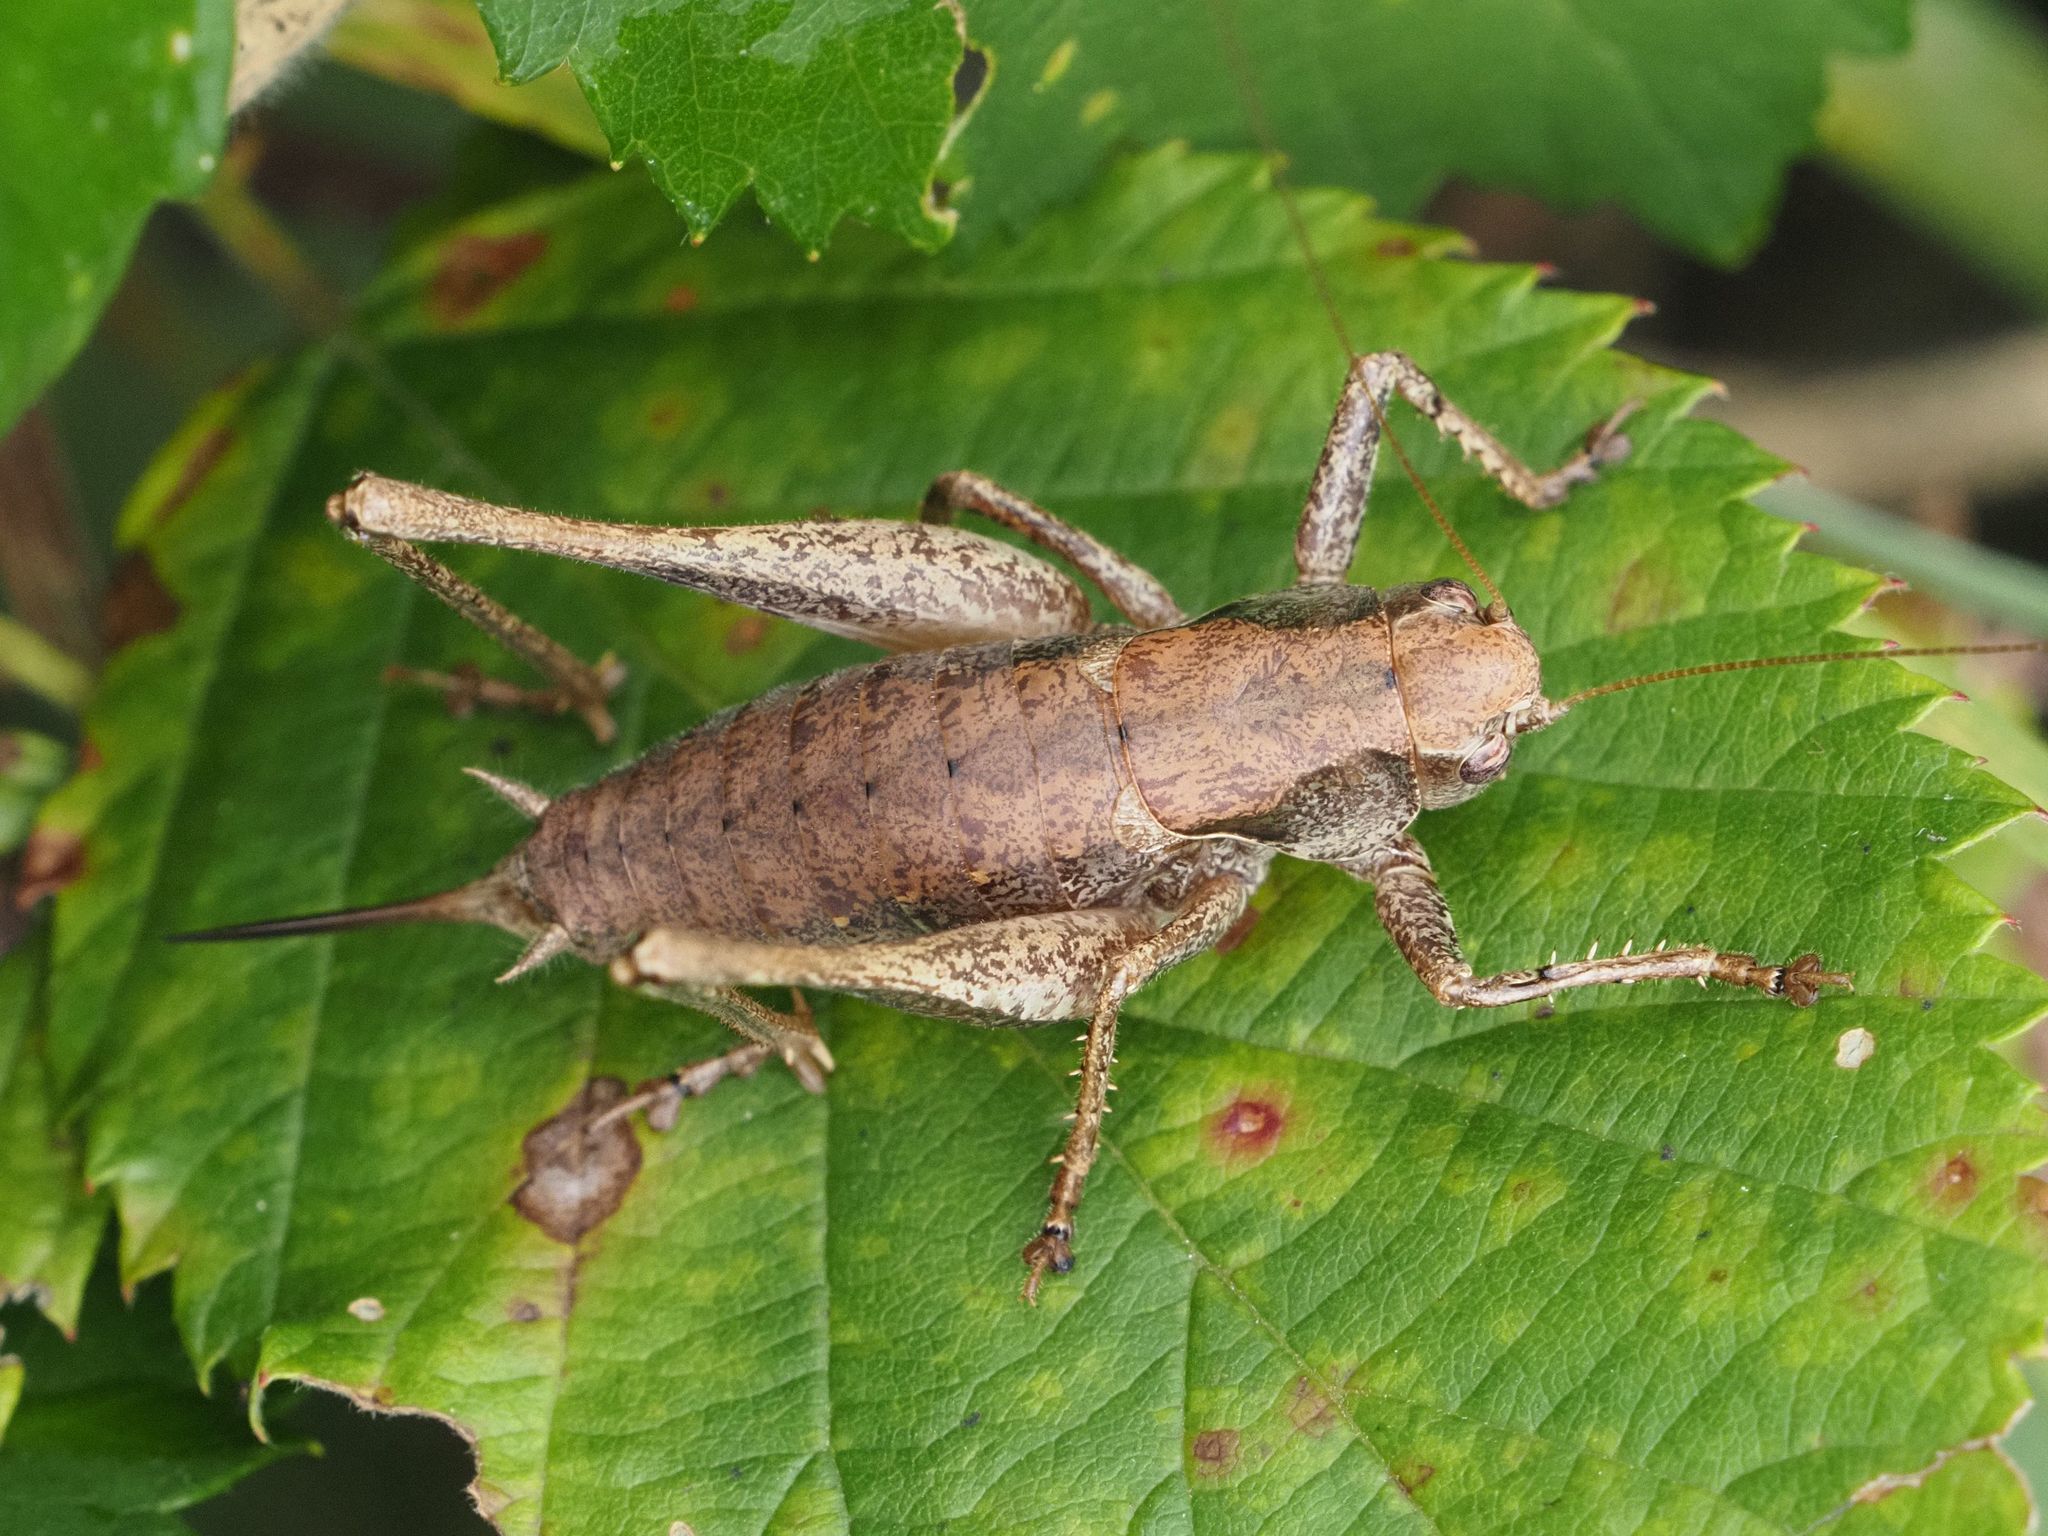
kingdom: Animalia
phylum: Arthropoda
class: Insecta
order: Orthoptera
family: Tettigoniidae
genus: Pholidoptera
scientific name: Pholidoptera griseoaptera
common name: Dark bush-cricket
